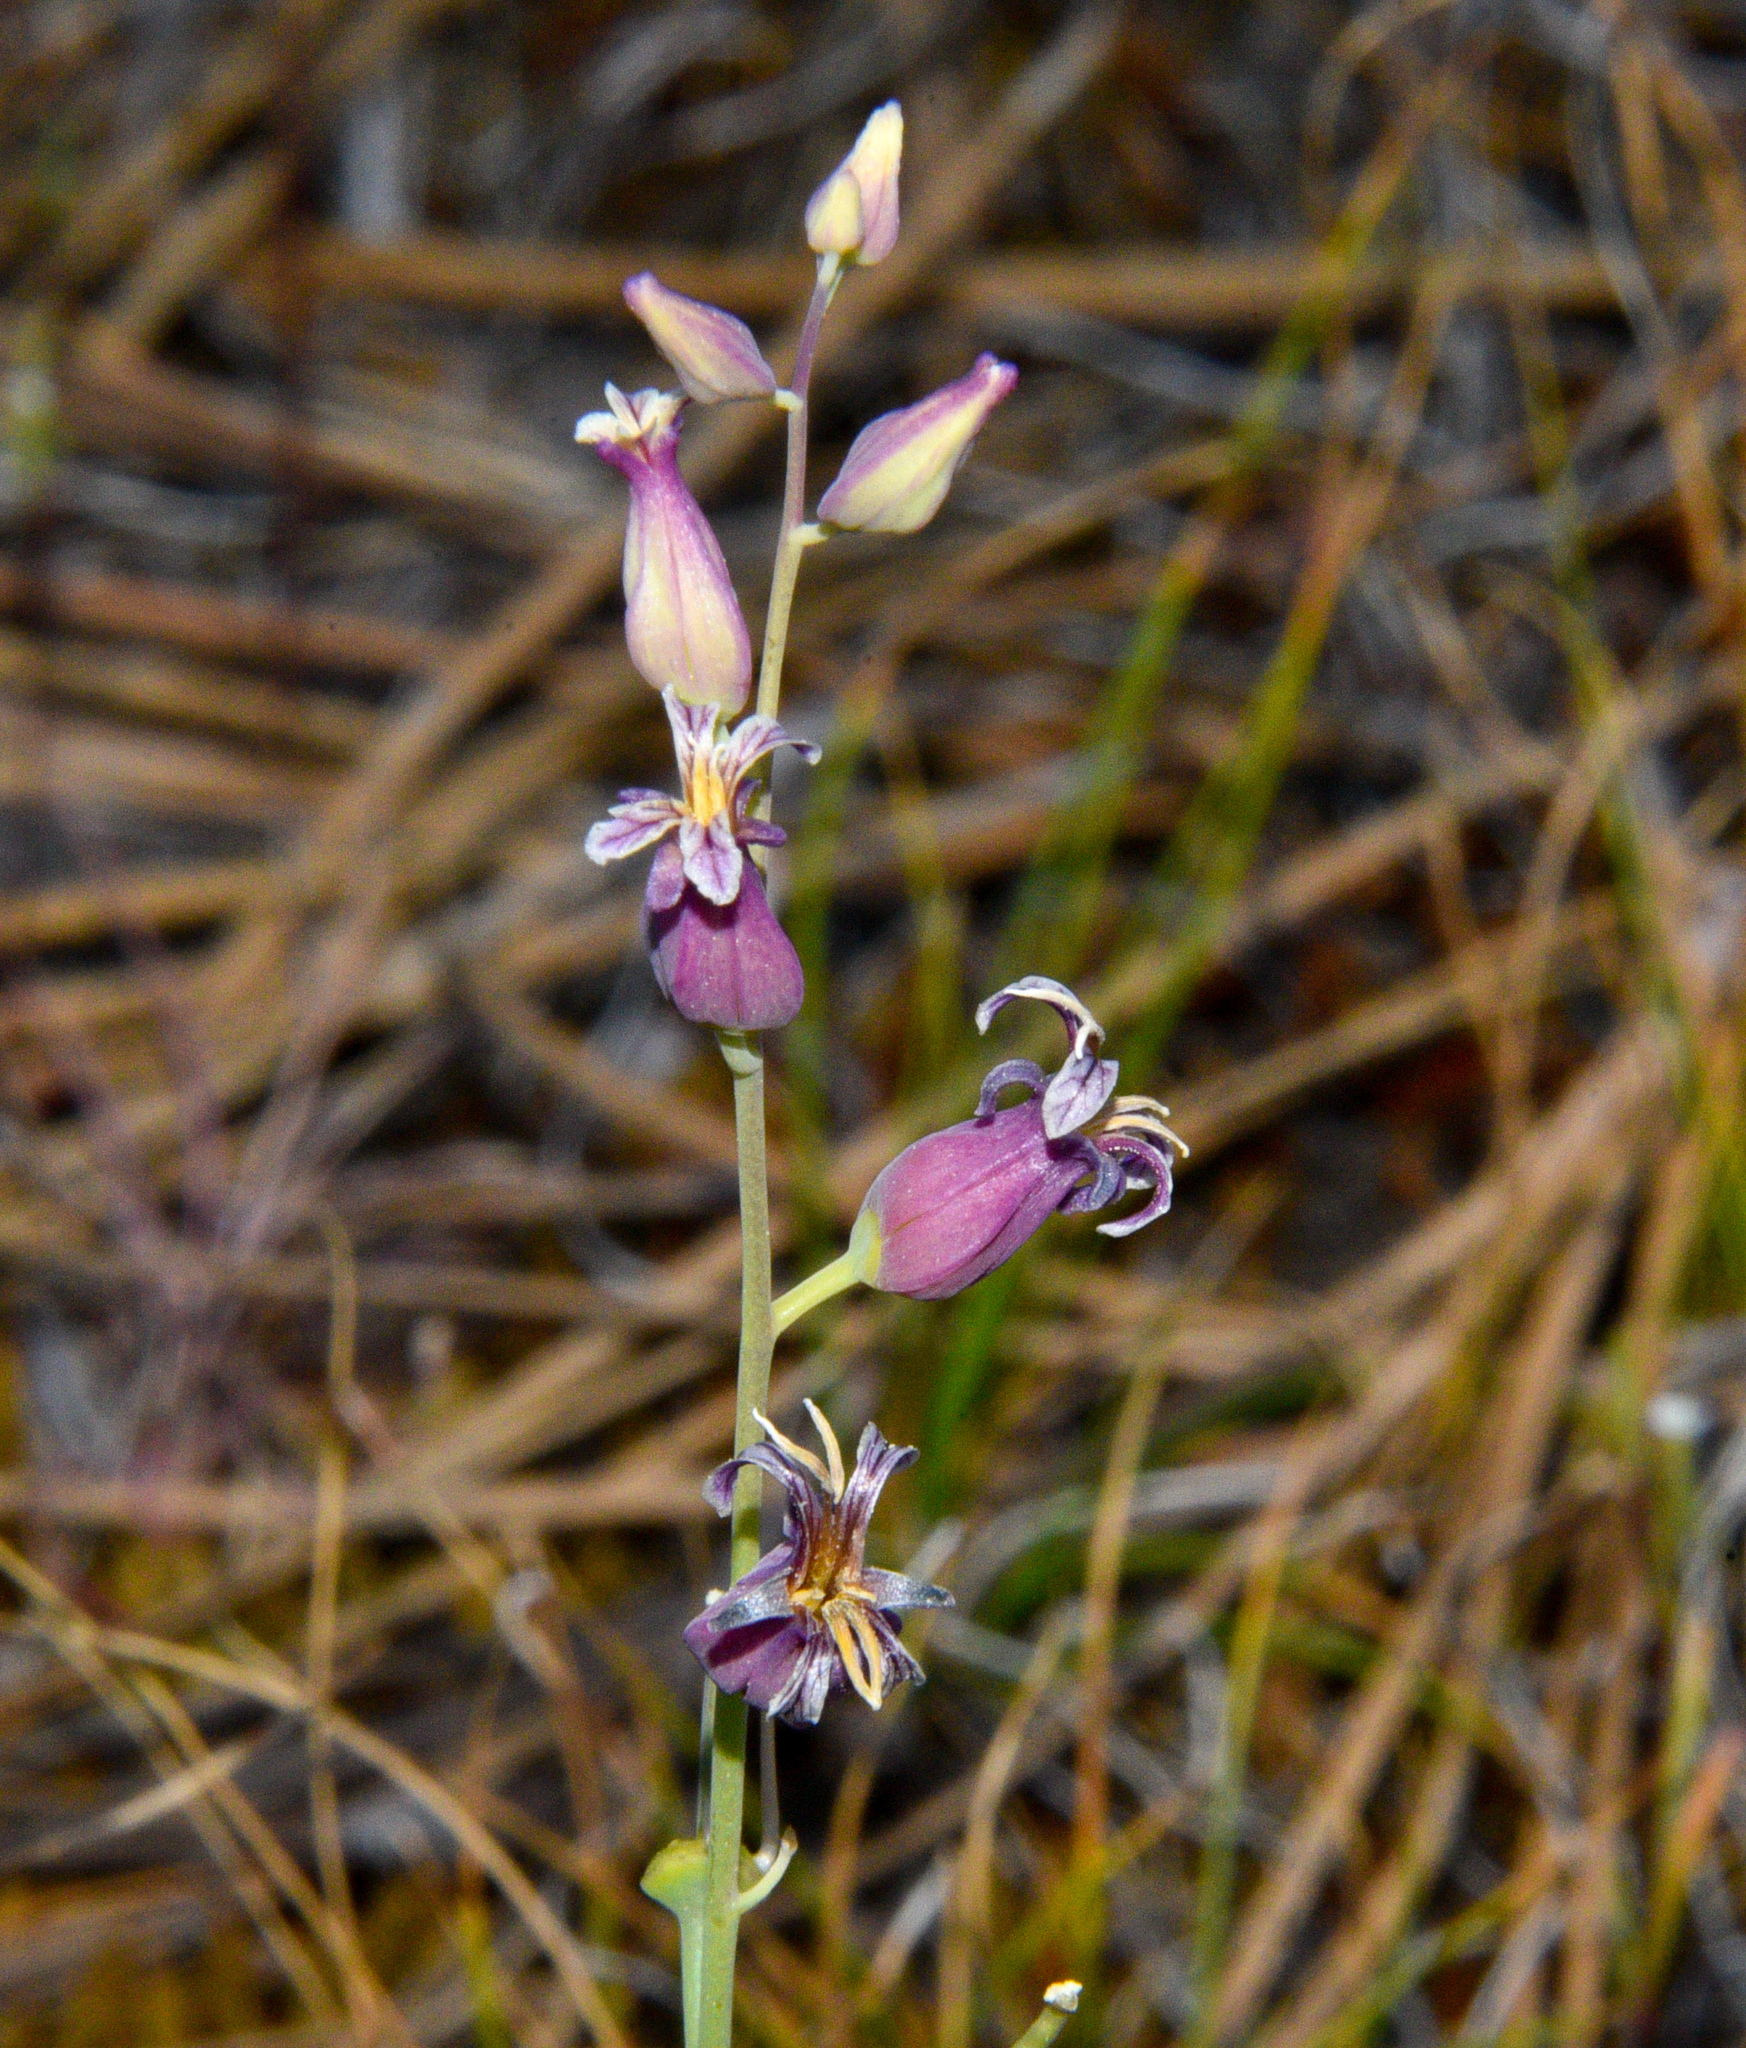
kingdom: Plantae
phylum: Tracheophyta
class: Magnoliopsida
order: Brassicales
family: Brassicaceae
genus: Streptanthus
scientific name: Streptanthus tortuosus
